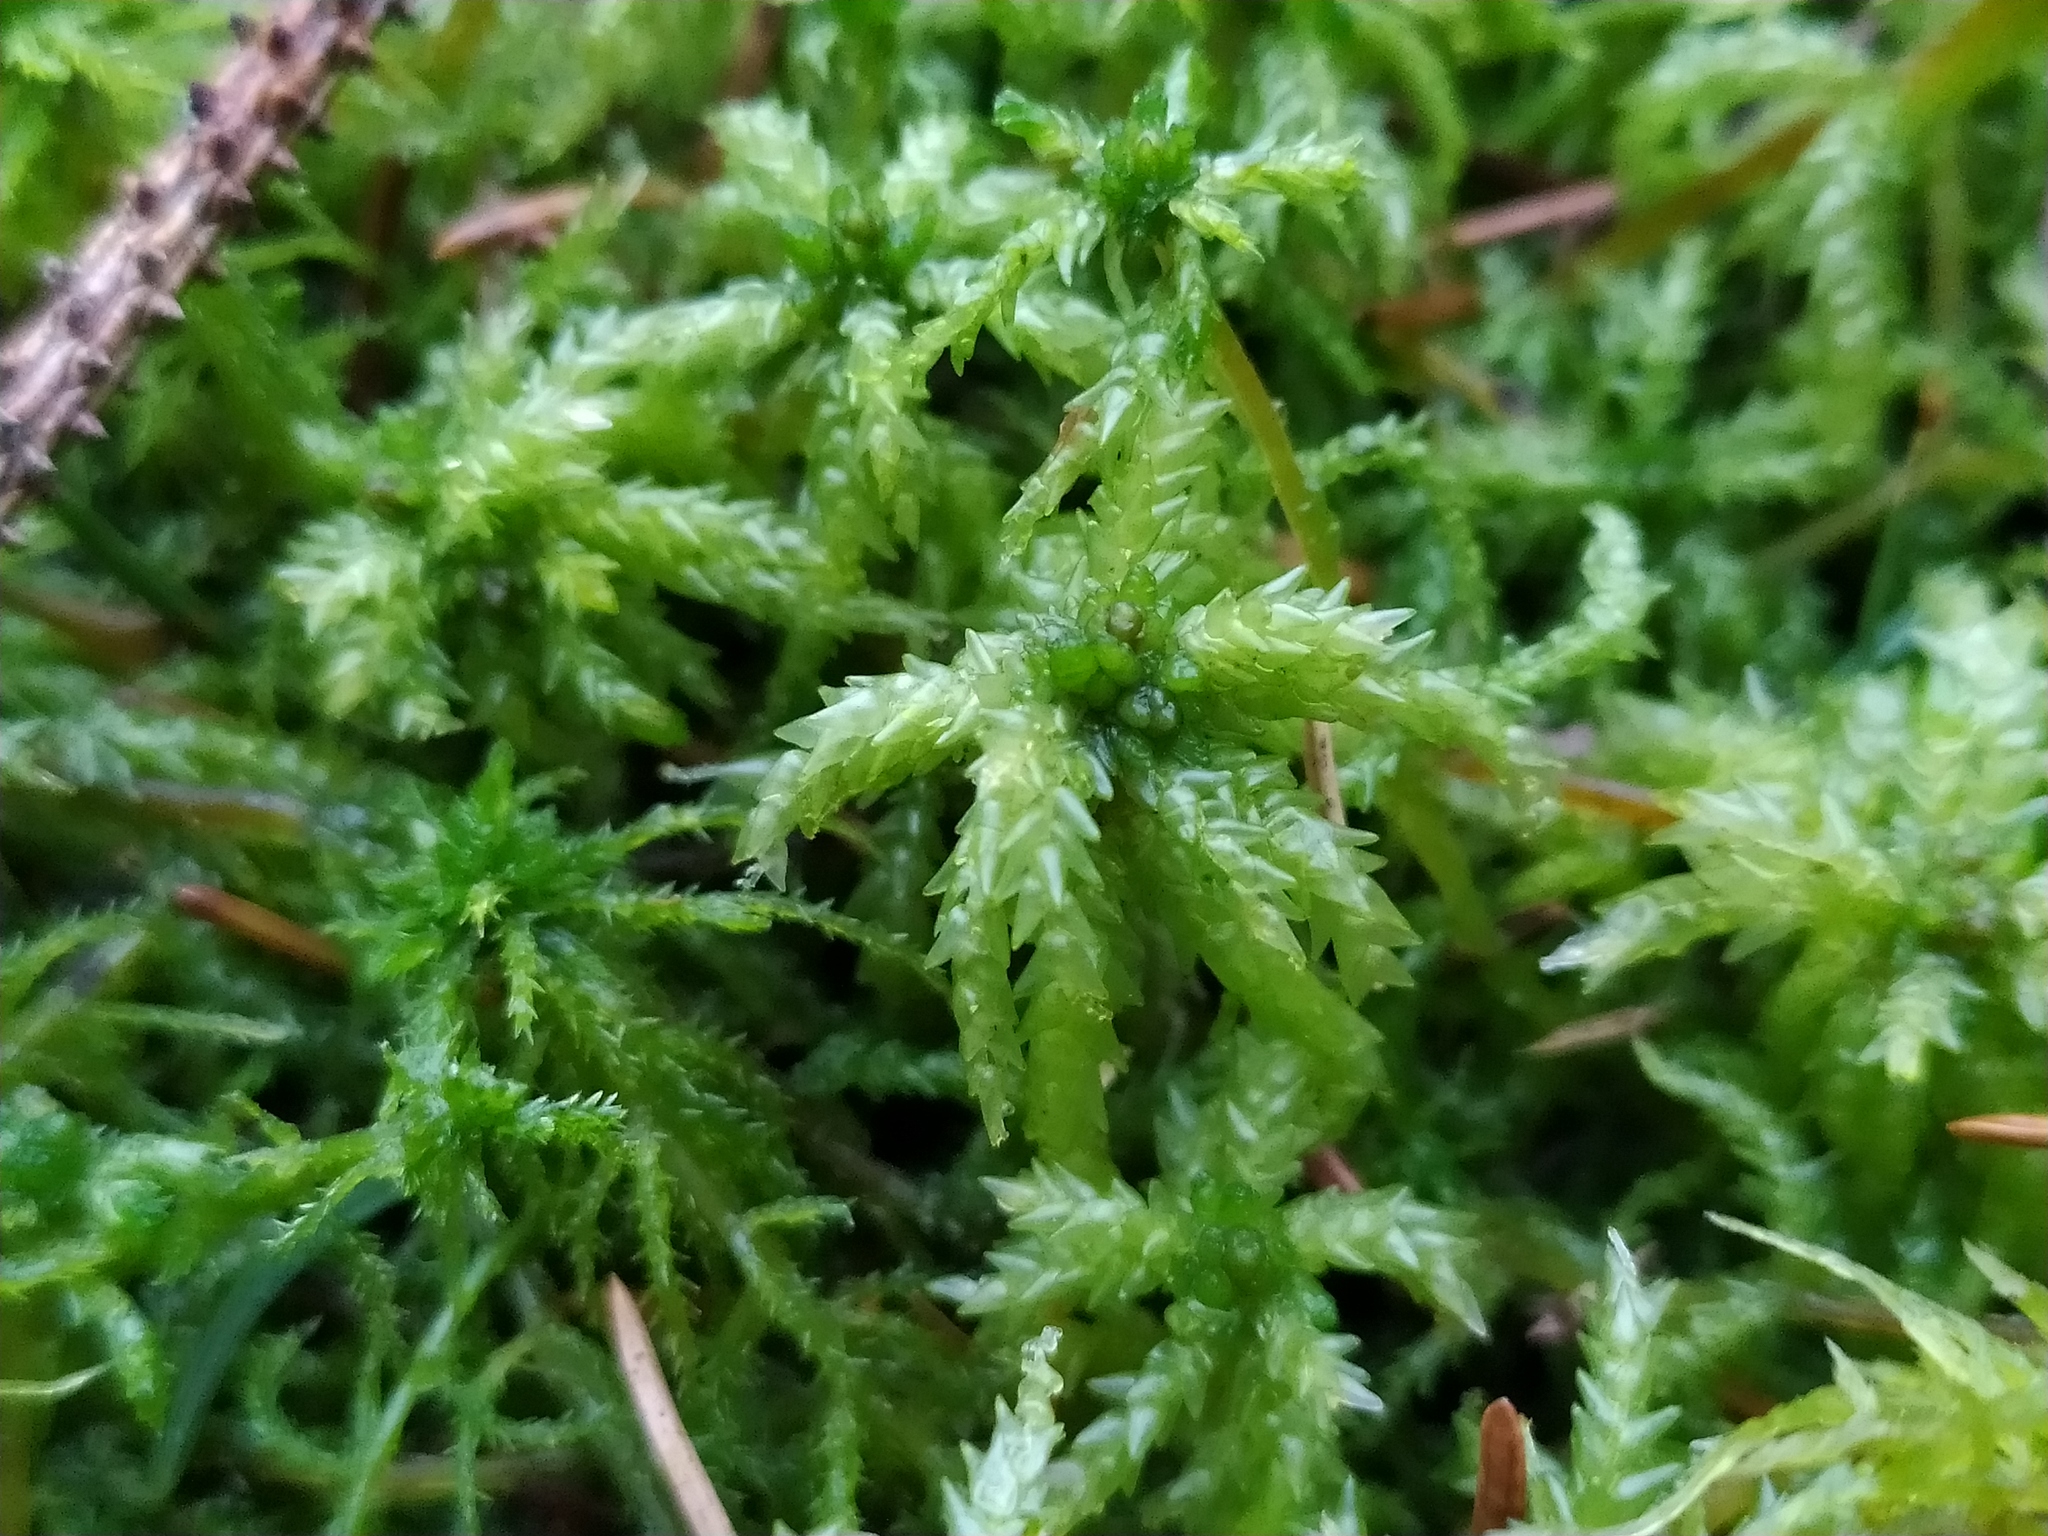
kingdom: Plantae
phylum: Bryophyta
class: Sphagnopsida
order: Sphagnales
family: Sphagnaceae
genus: Sphagnum
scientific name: Sphagnum palustre
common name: Blunt-leaved bog-moss
